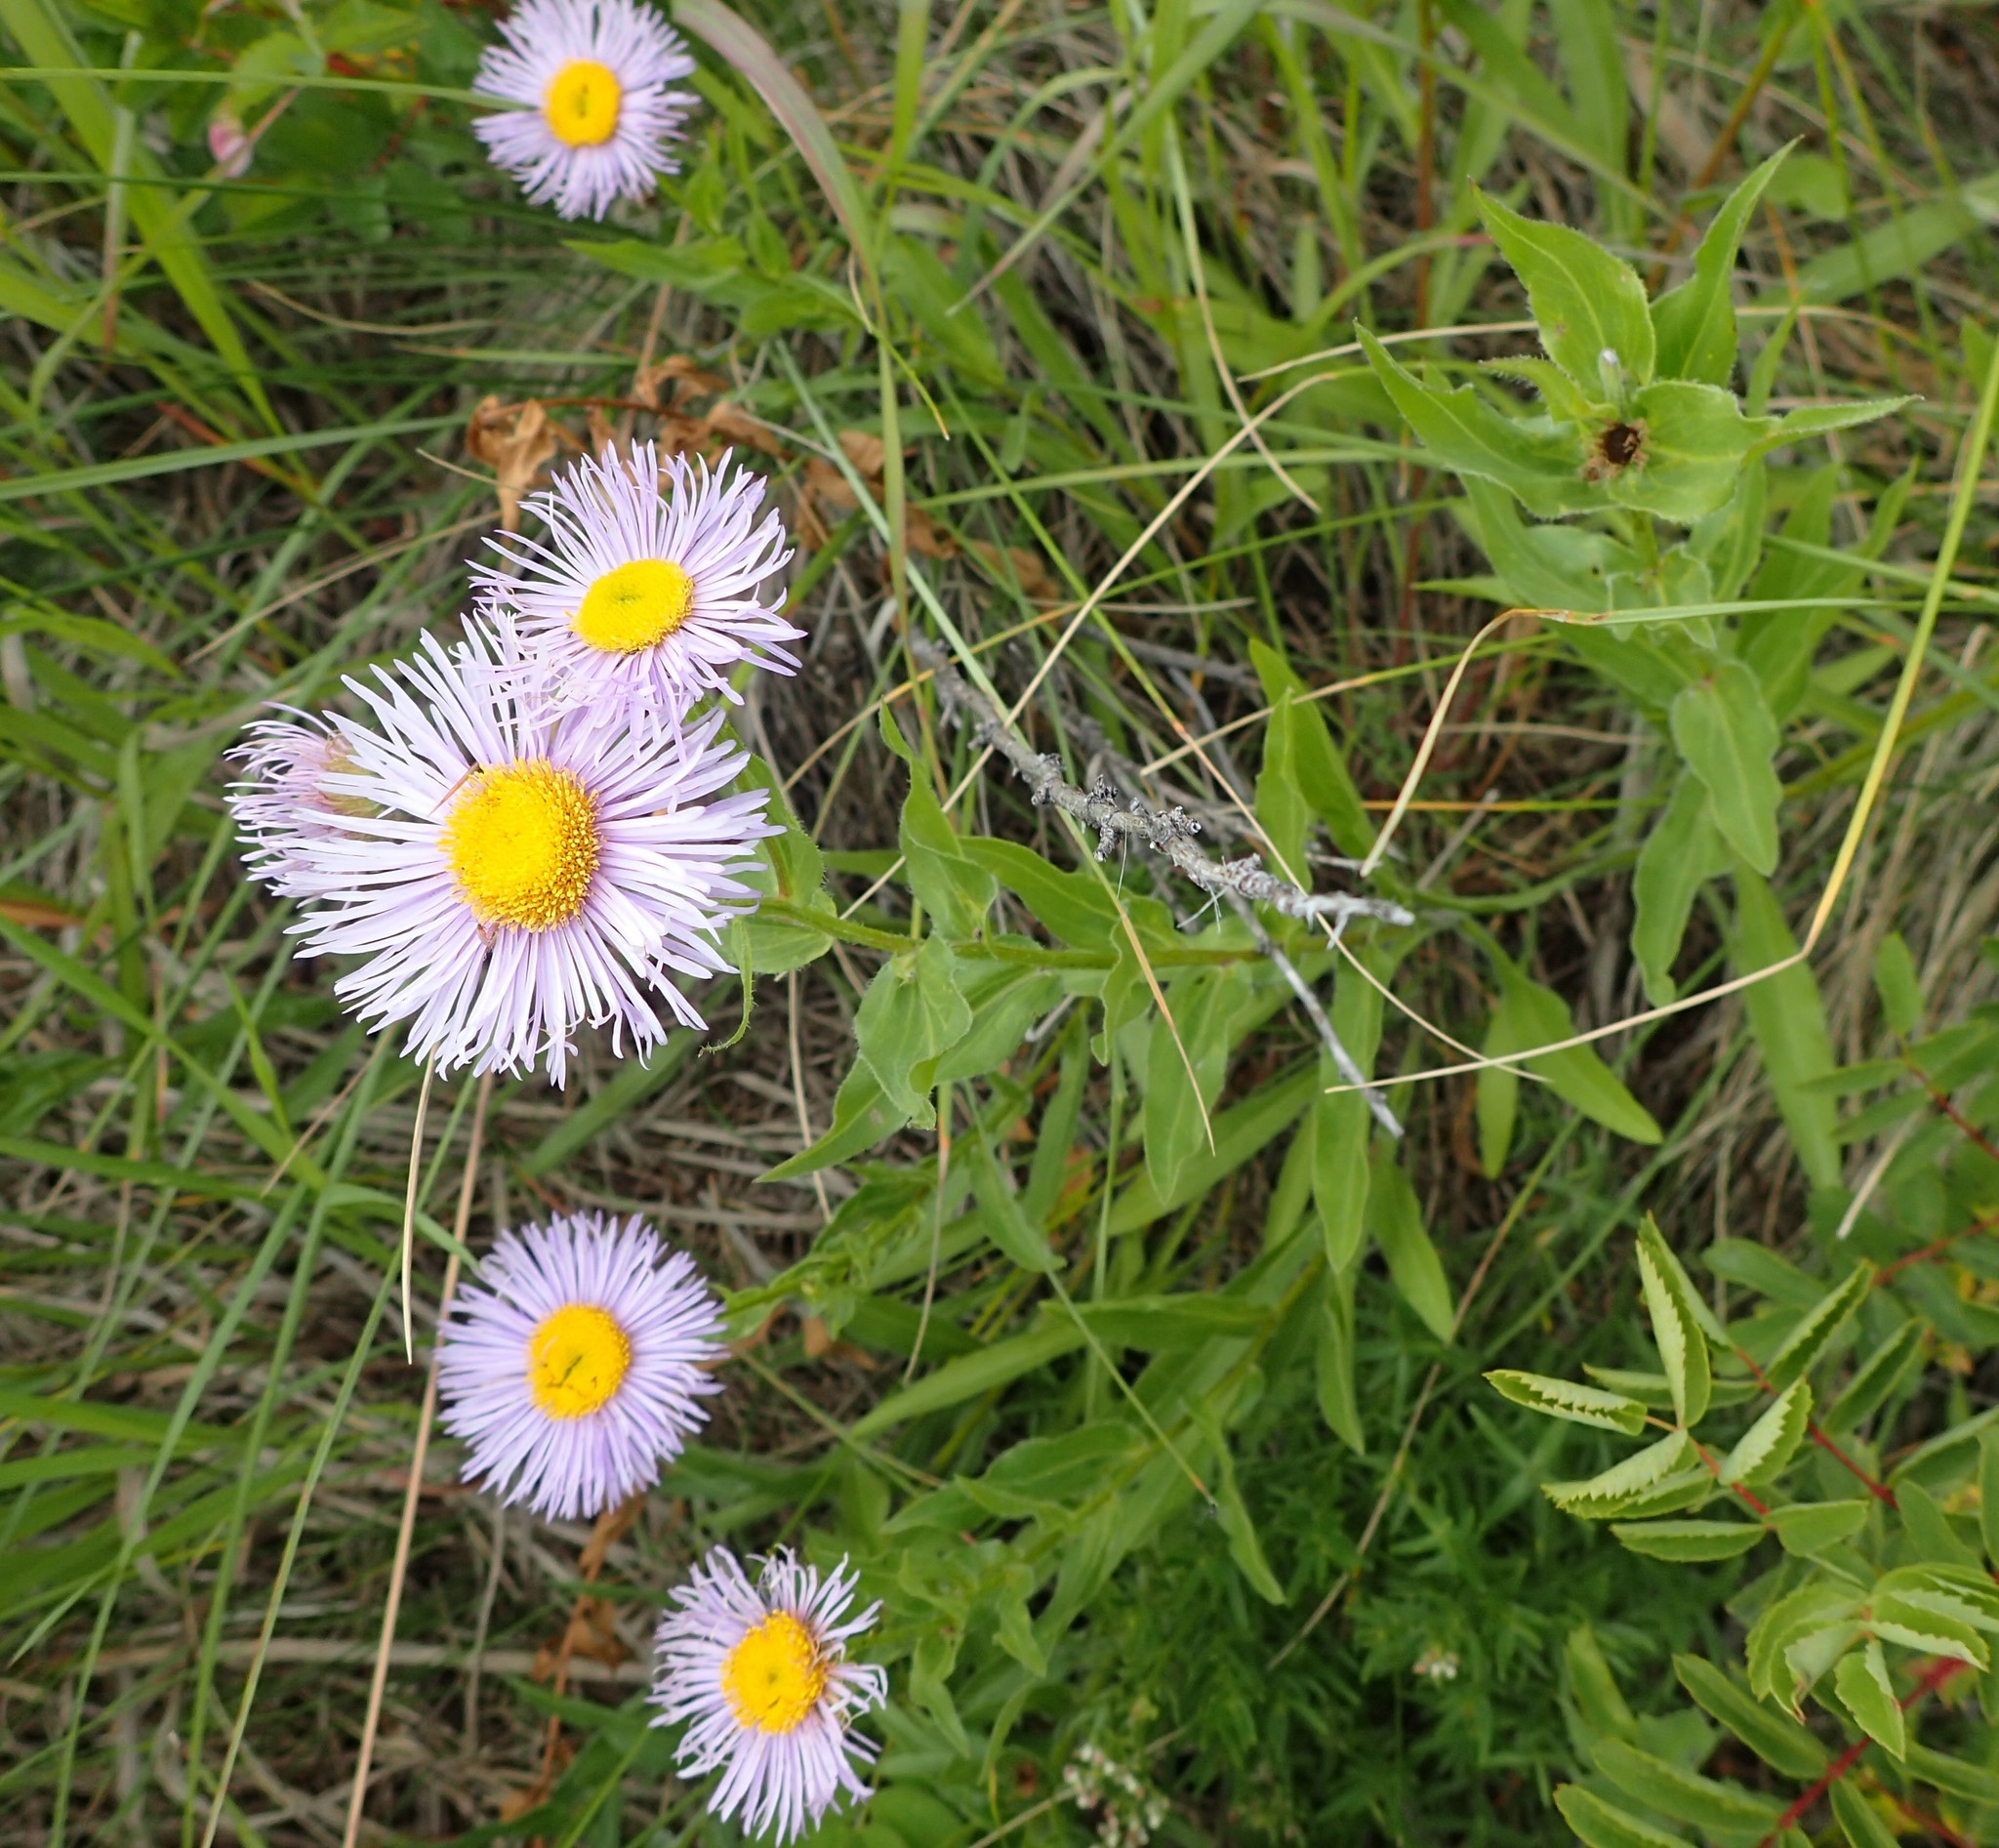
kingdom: Plantae
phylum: Tracheophyta
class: Magnoliopsida
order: Asterales
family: Asteraceae
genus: Erigeron
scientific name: Erigeron speciosus
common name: Aspen fleabane
